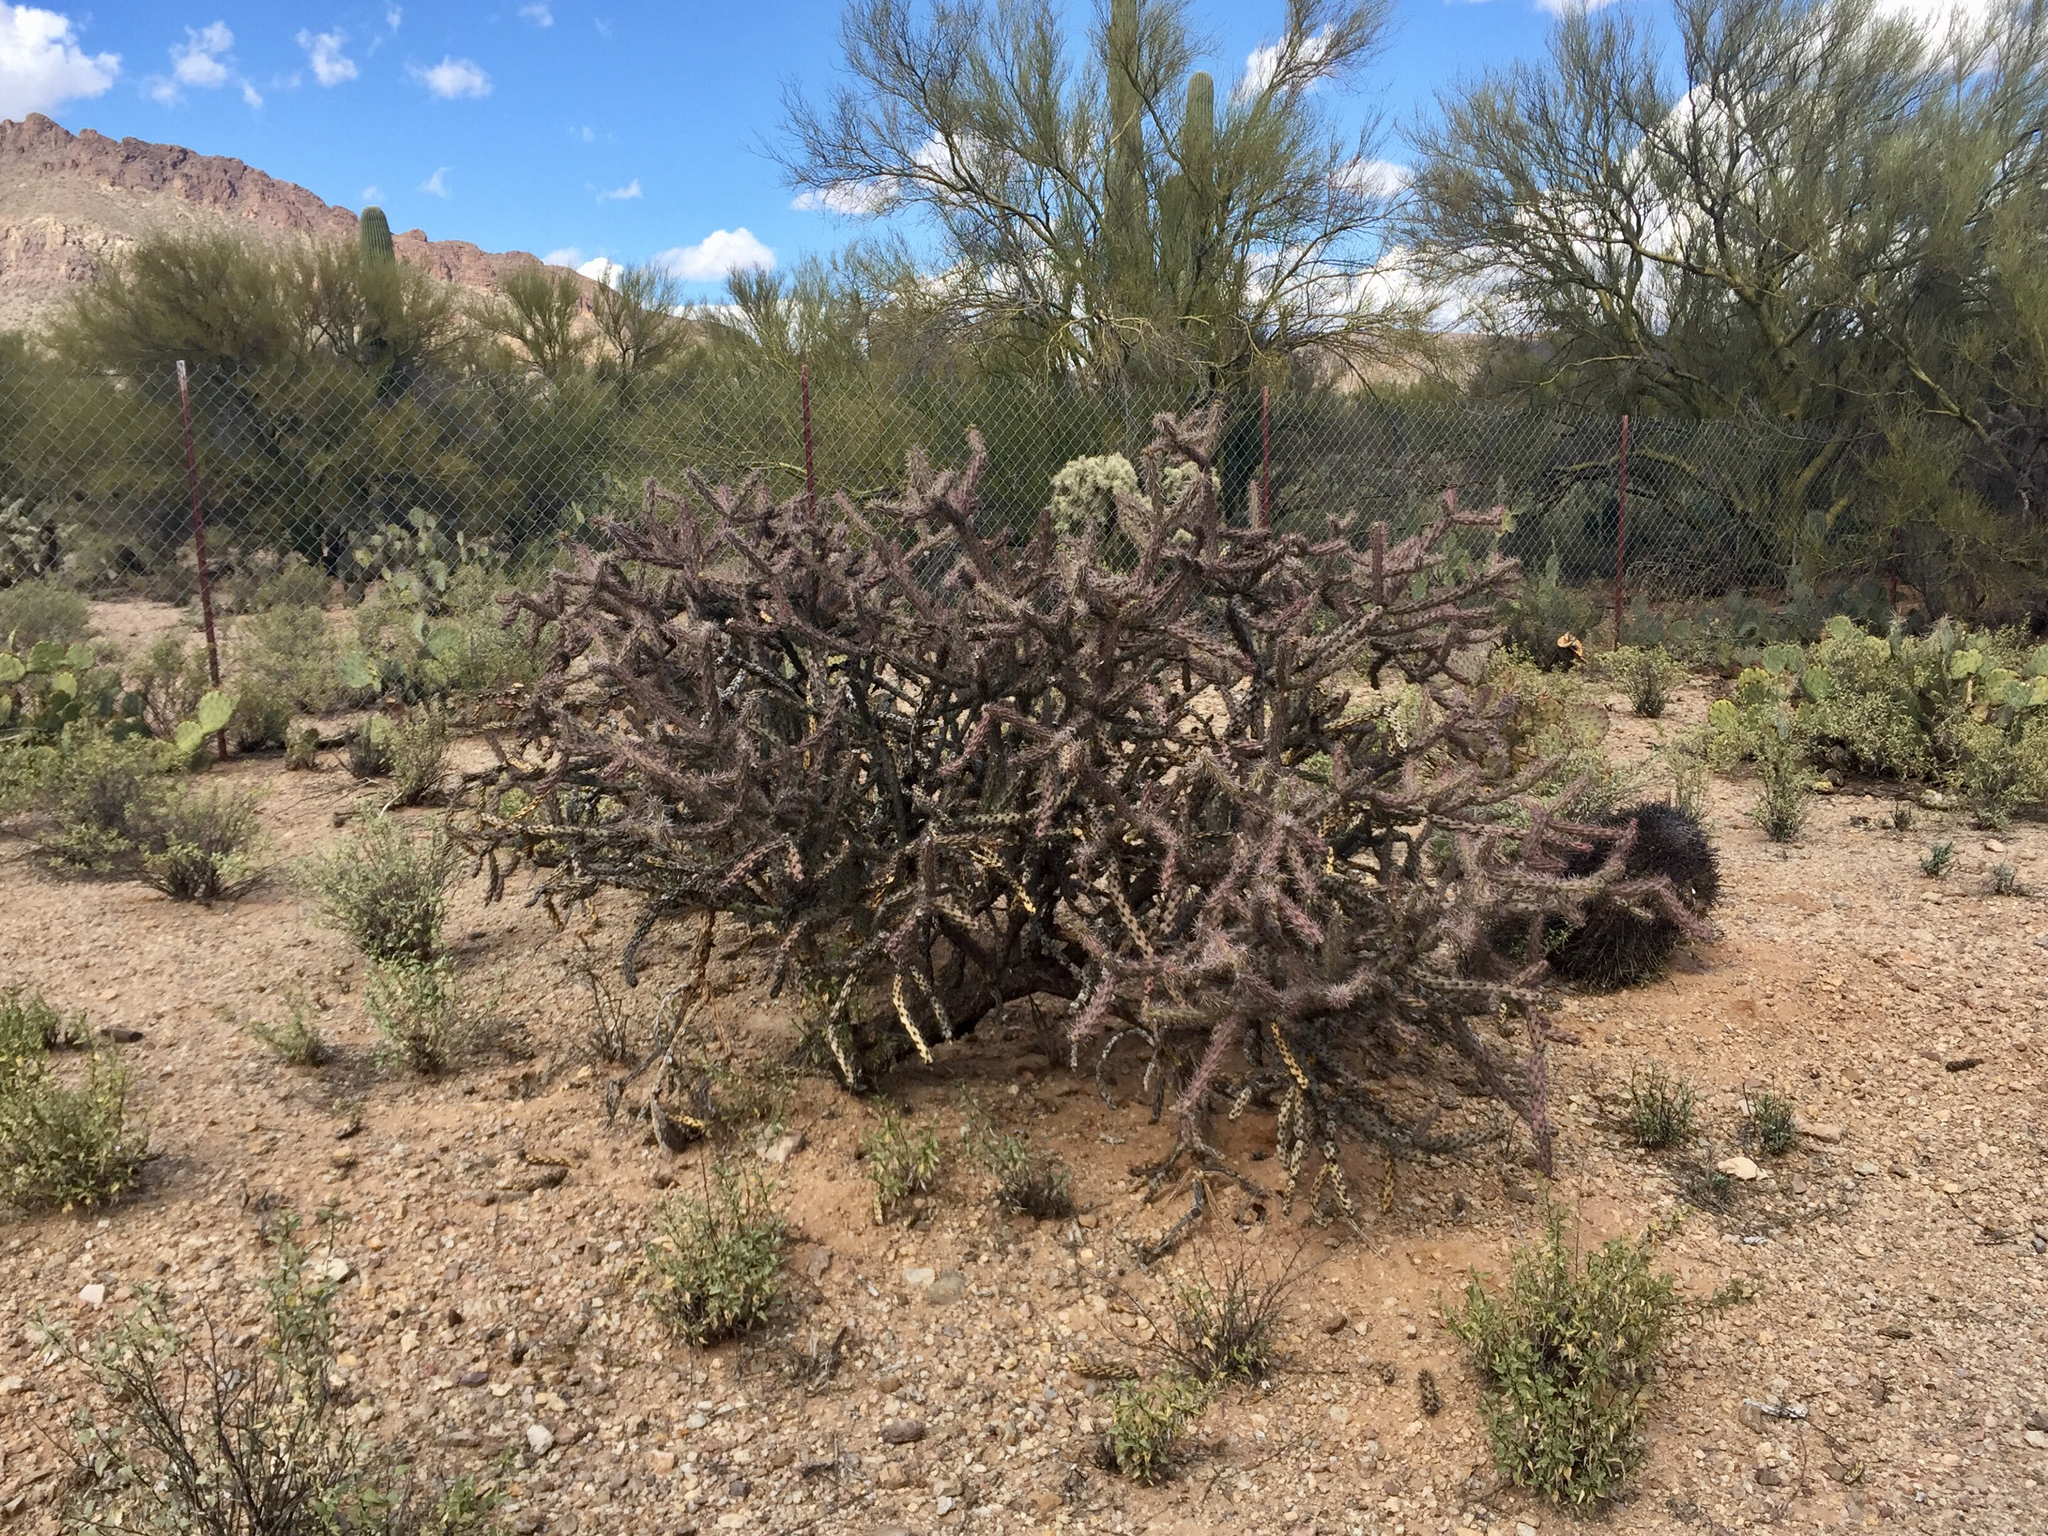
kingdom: Plantae
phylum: Tracheophyta
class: Magnoliopsida
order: Caryophyllales
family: Cactaceae
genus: Cylindropuntia
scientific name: Cylindropuntia thurberi
